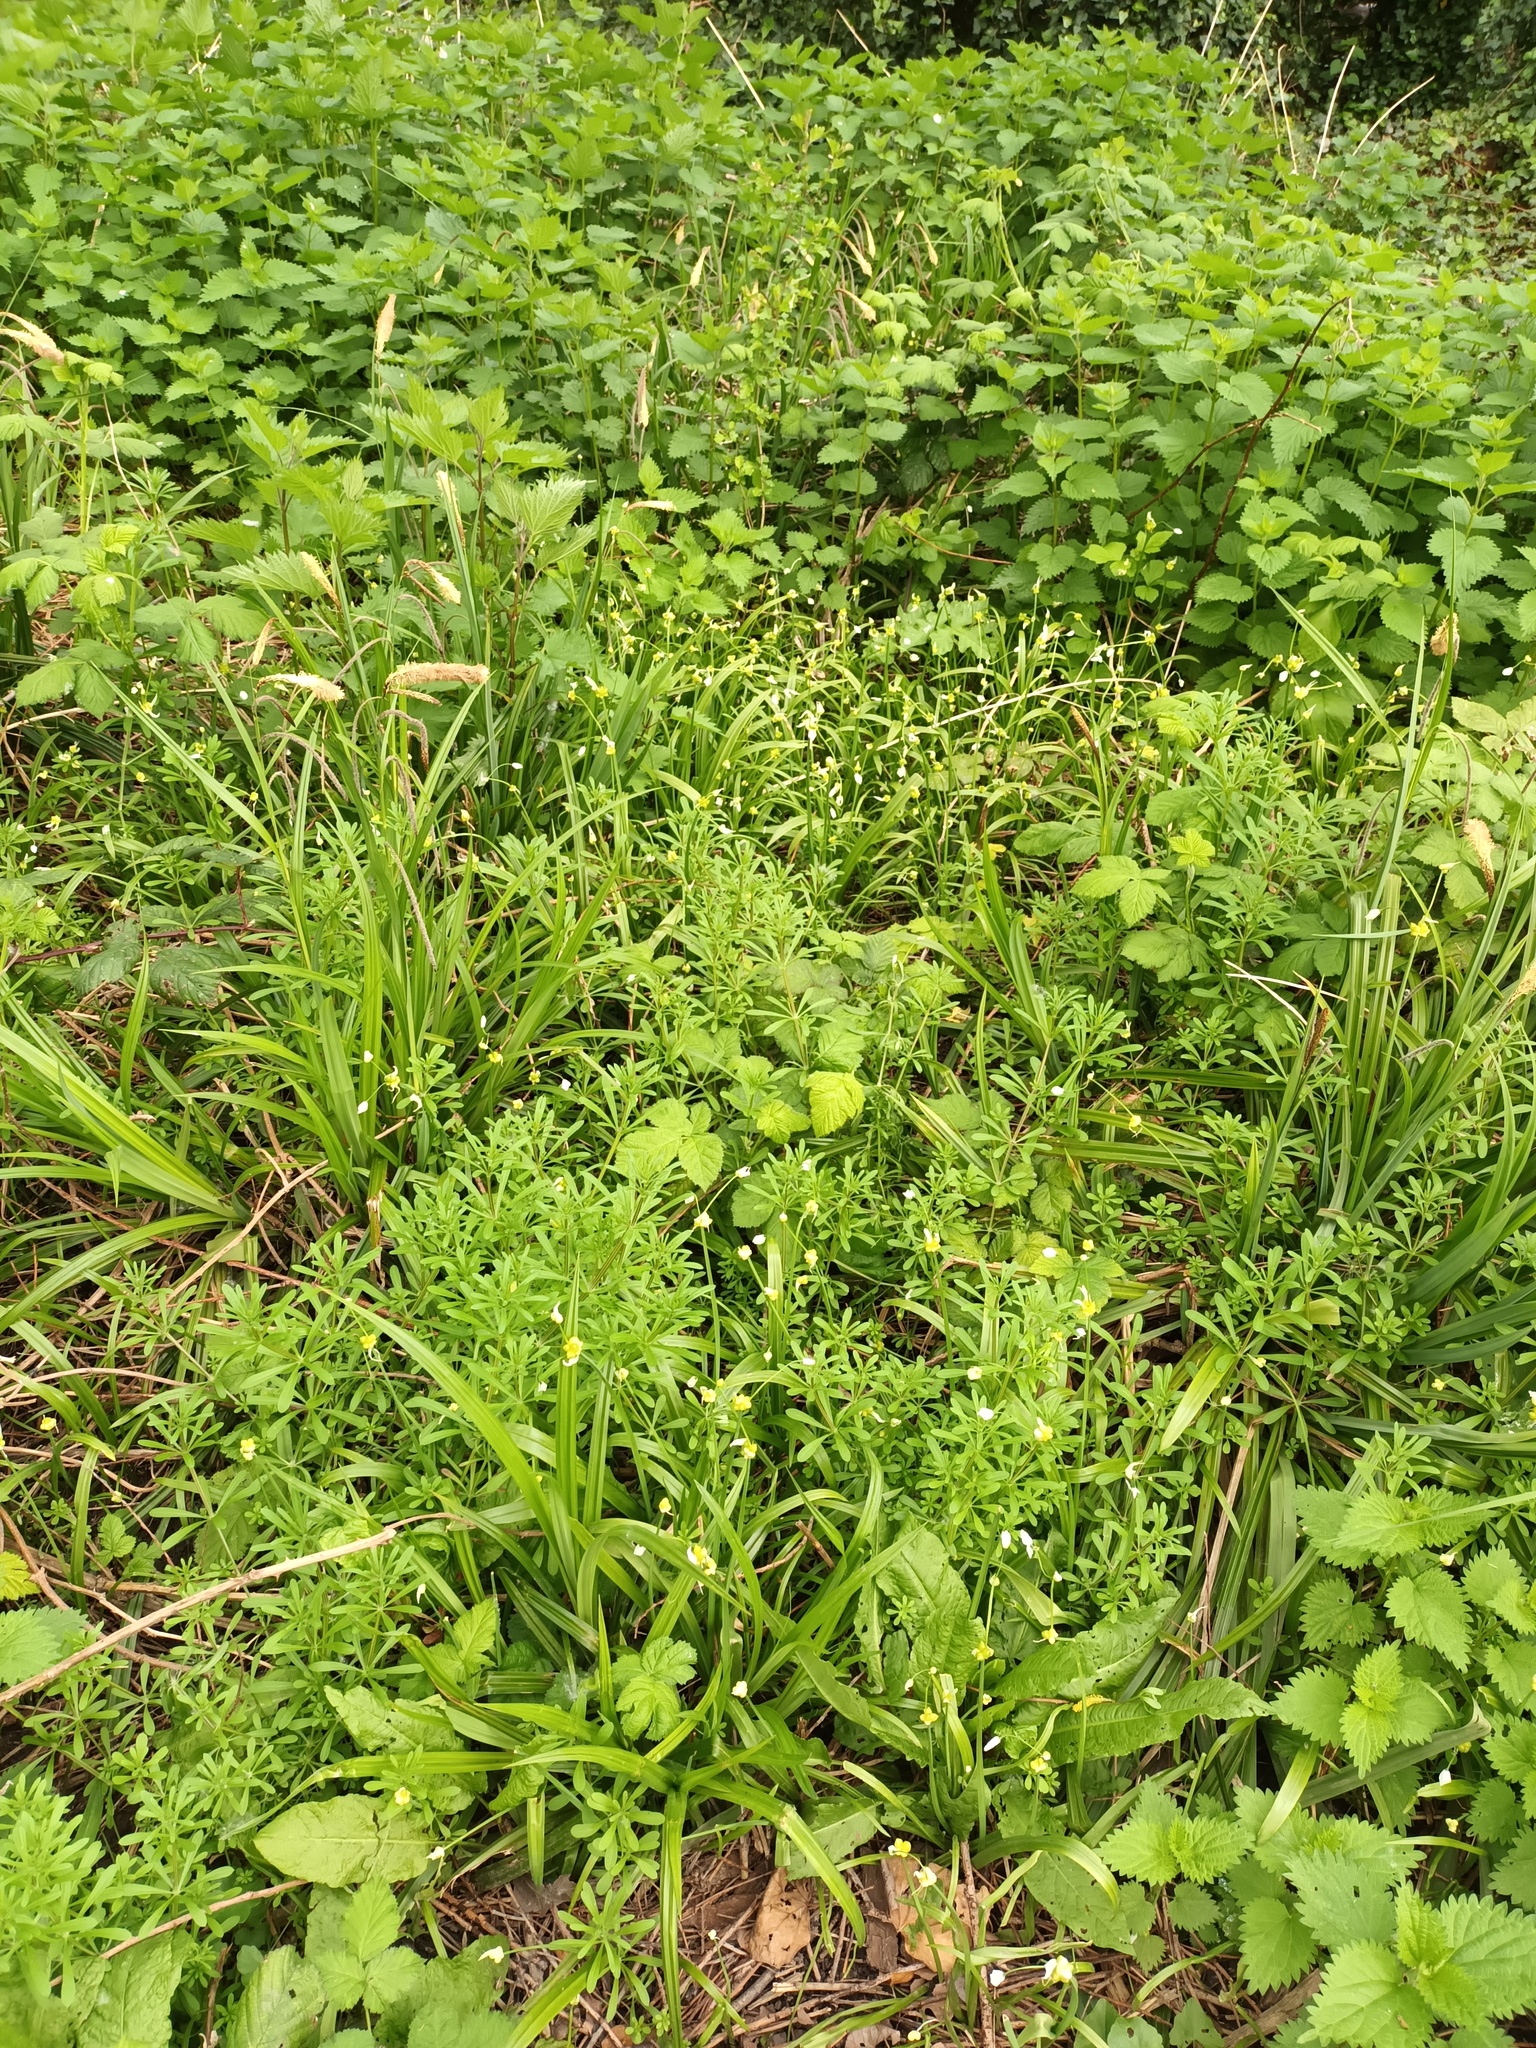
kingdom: Plantae
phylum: Tracheophyta
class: Liliopsida
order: Asparagales
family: Amaryllidaceae
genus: Allium
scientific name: Allium paradoxum
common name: Few-flowered garlic
